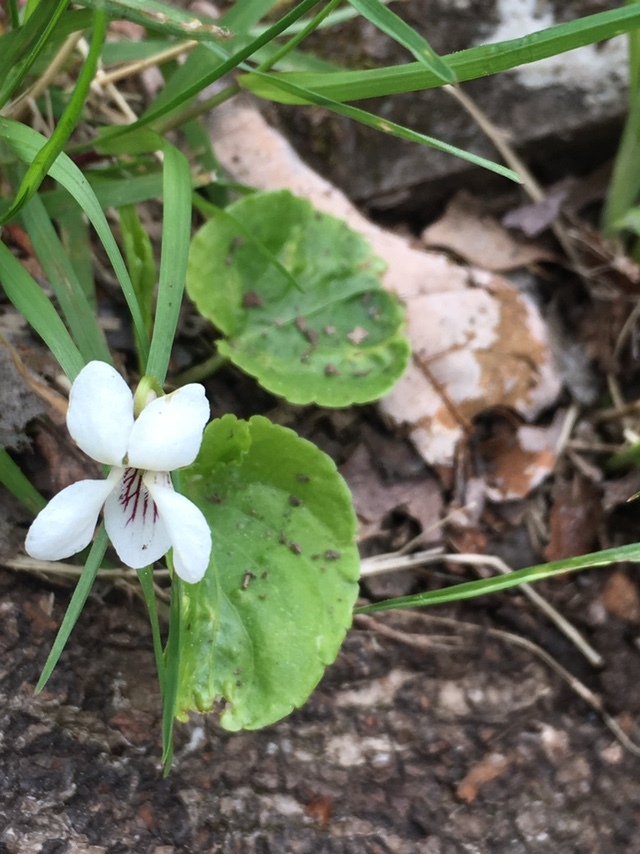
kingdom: Plantae
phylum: Tracheophyta
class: Magnoliopsida
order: Malpighiales
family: Violaceae
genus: Viola
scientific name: Viola renifolia
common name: Kidney-leaf violet
